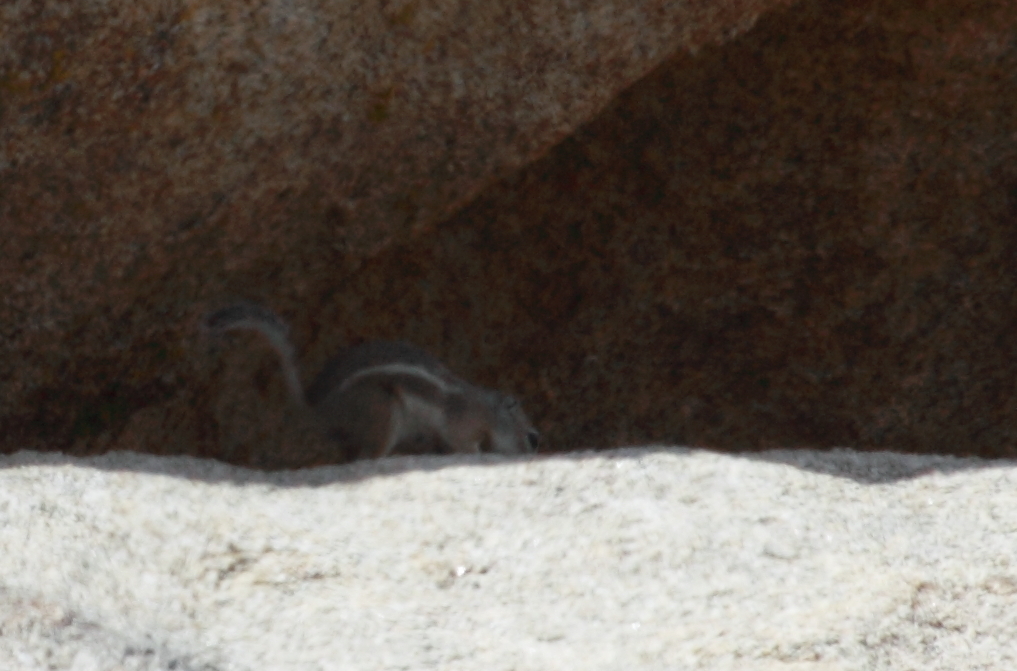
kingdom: Animalia
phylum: Chordata
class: Mammalia
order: Rodentia
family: Sciuridae
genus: Ammospermophilus
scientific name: Ammospermophilus leucurus
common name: White-tailed antelope squirrel
